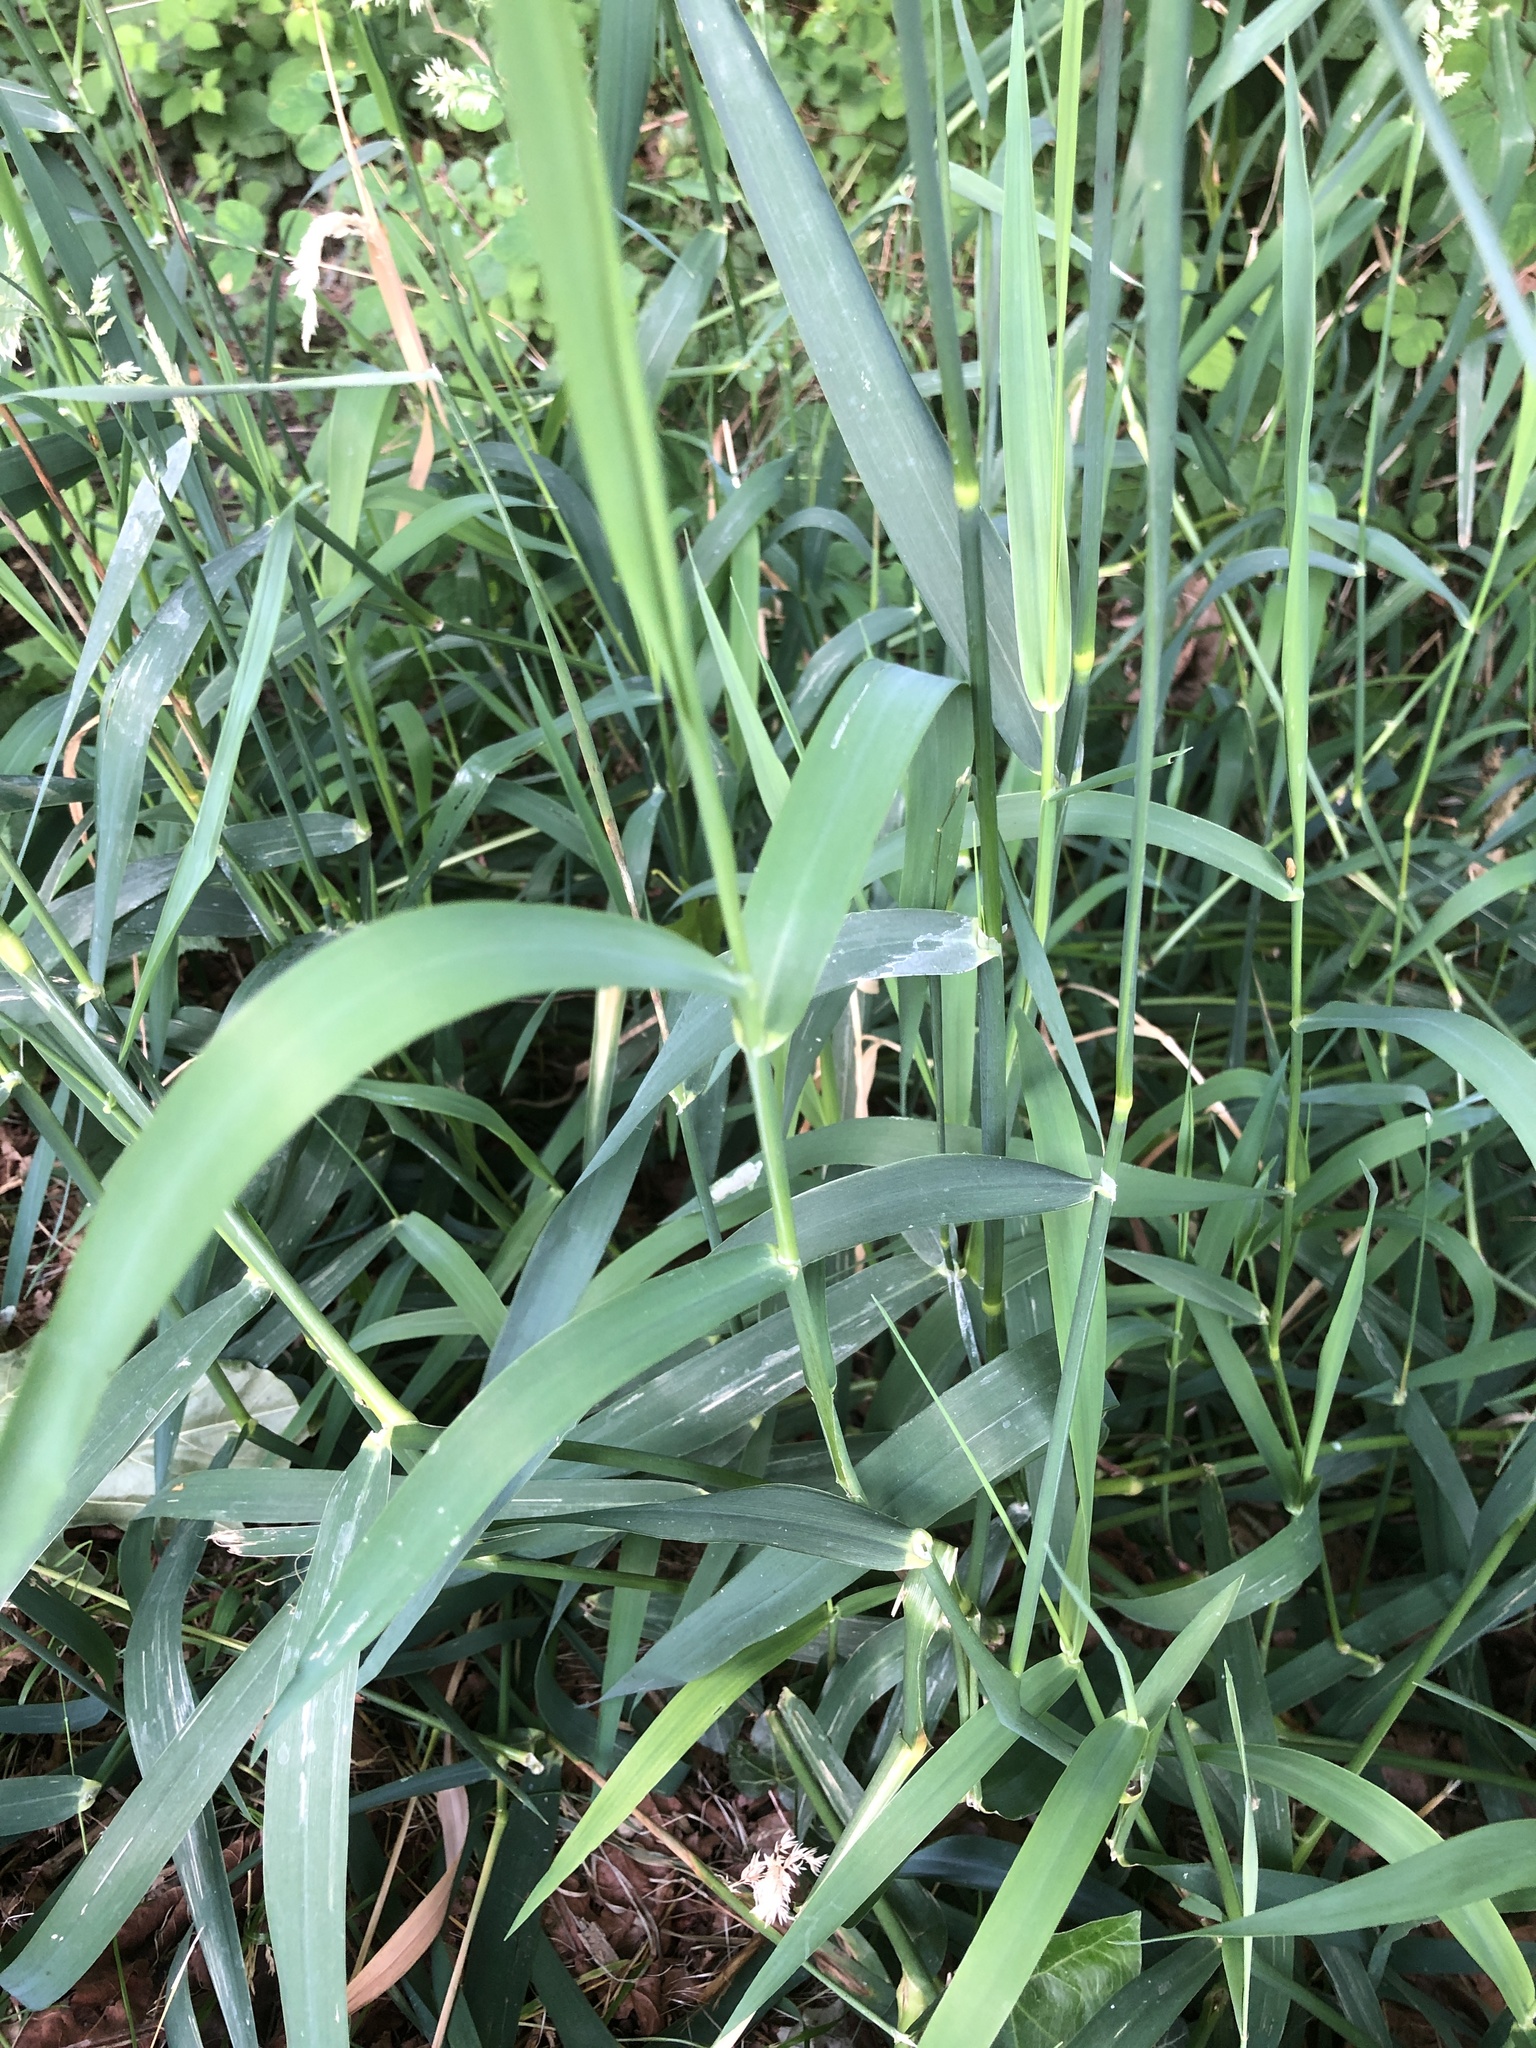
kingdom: Plantae
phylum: Tracheophyta
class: Liliopsida
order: Poales
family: Poaceae
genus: Phalaris
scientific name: Phalaris arundinacea
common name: Reed canary-grass
